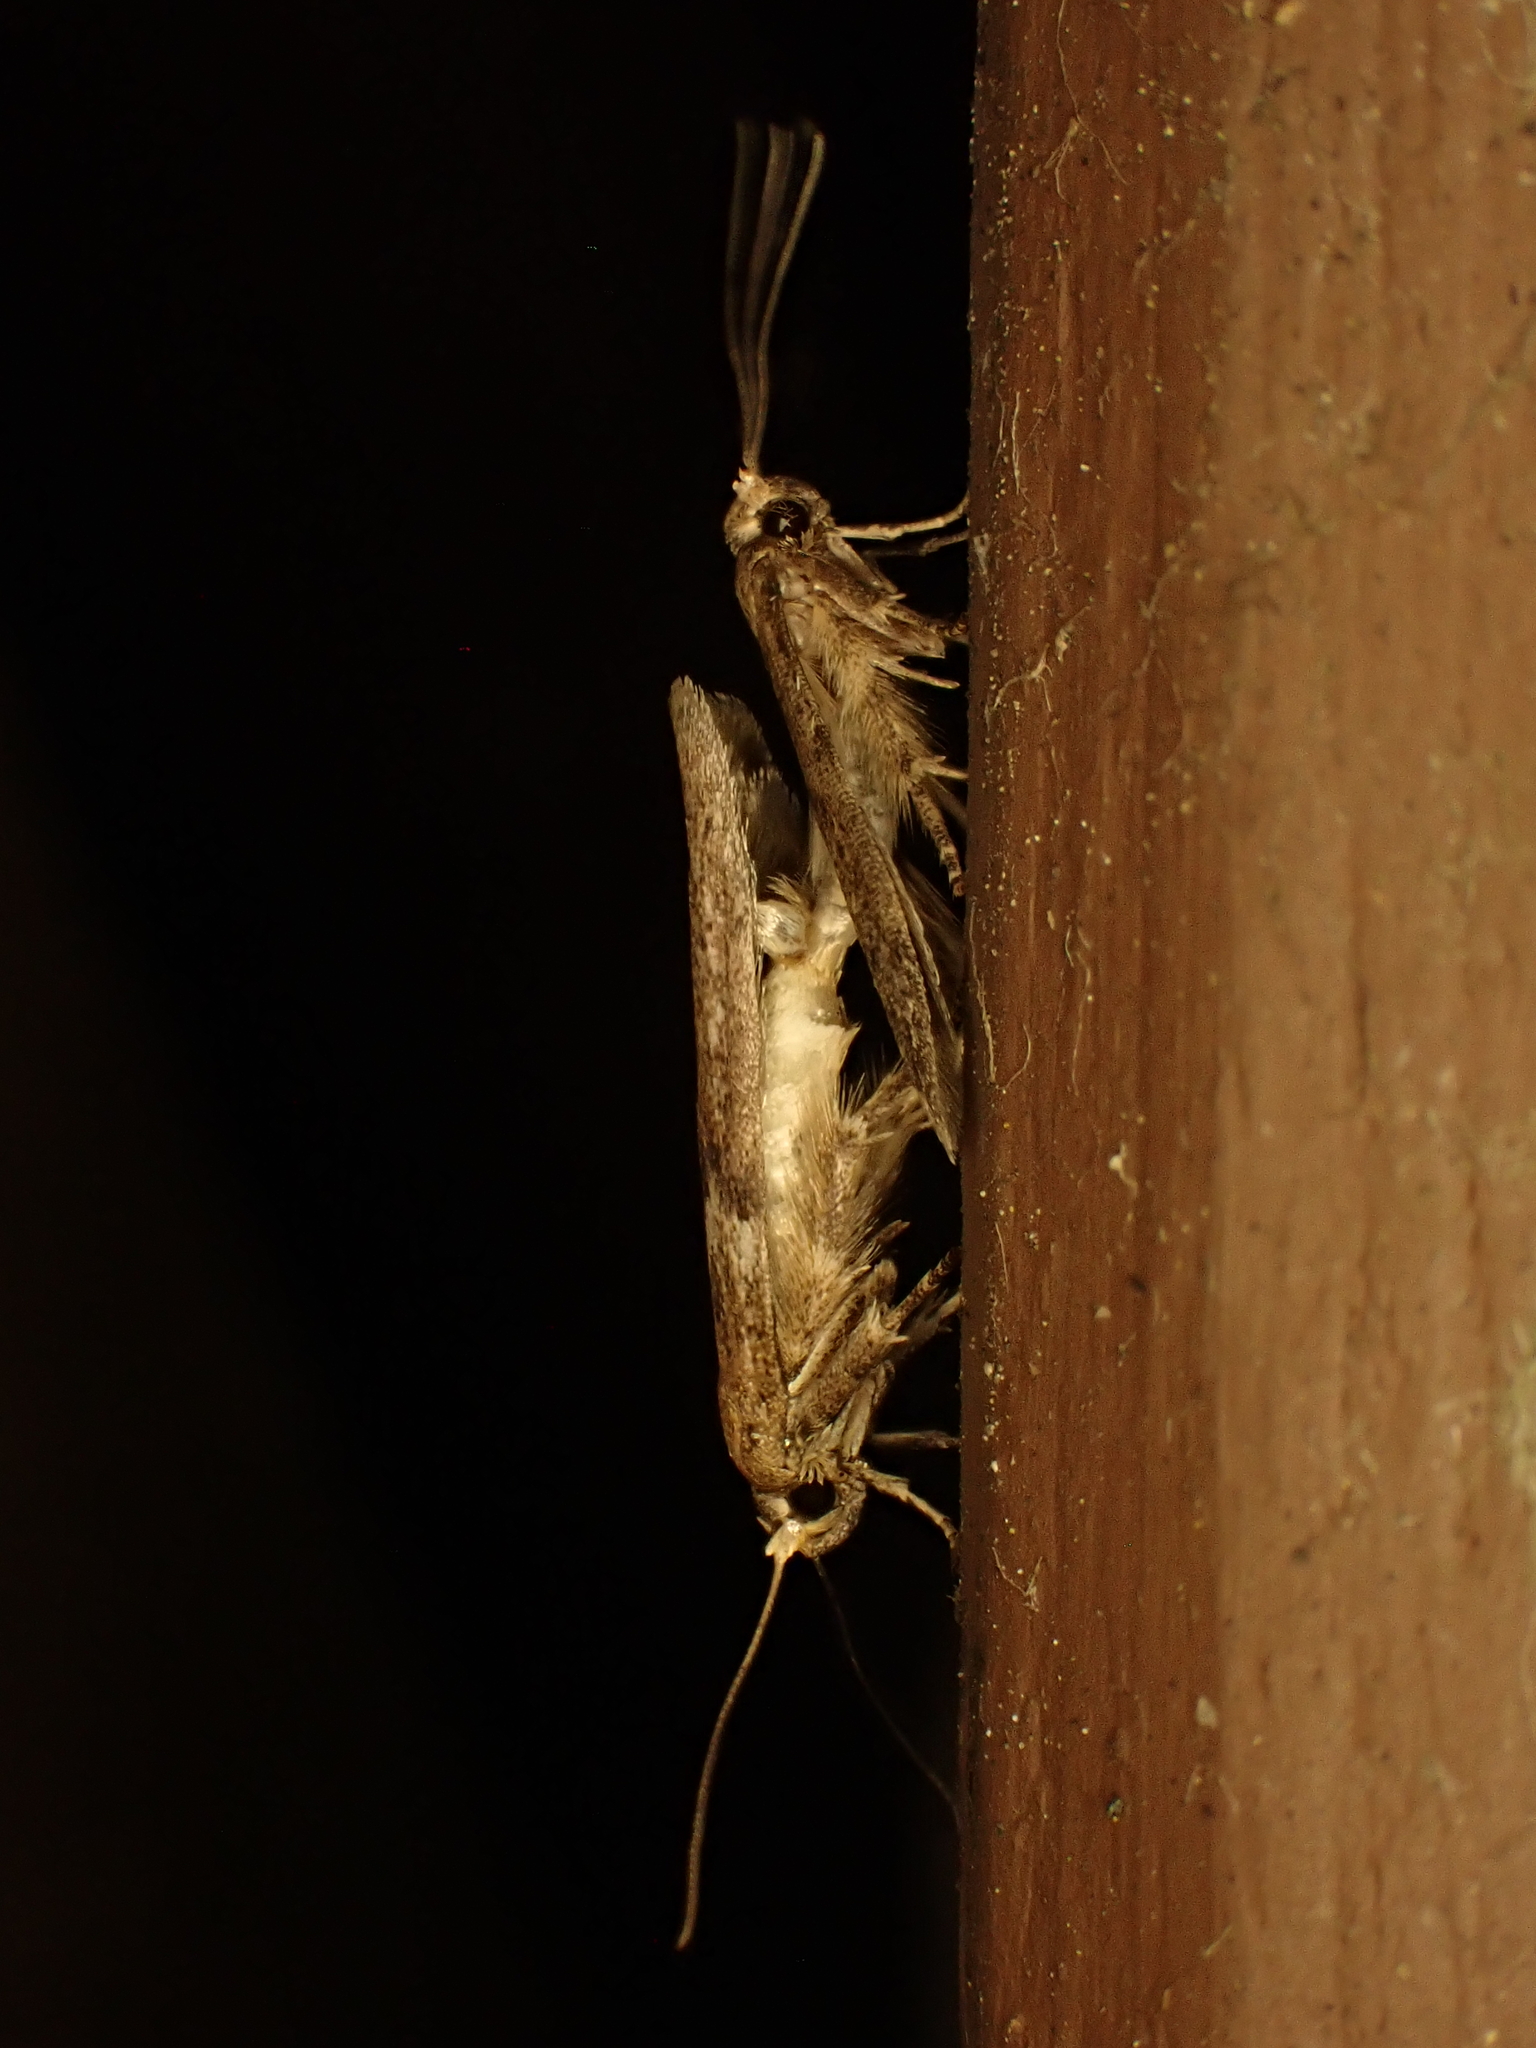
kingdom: Animalia
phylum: Arthropoda
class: Insecta
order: Lepidoptera
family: Blastobasidae
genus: Blastobasis
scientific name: Blastobasis tarda
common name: Blastobasid moth
